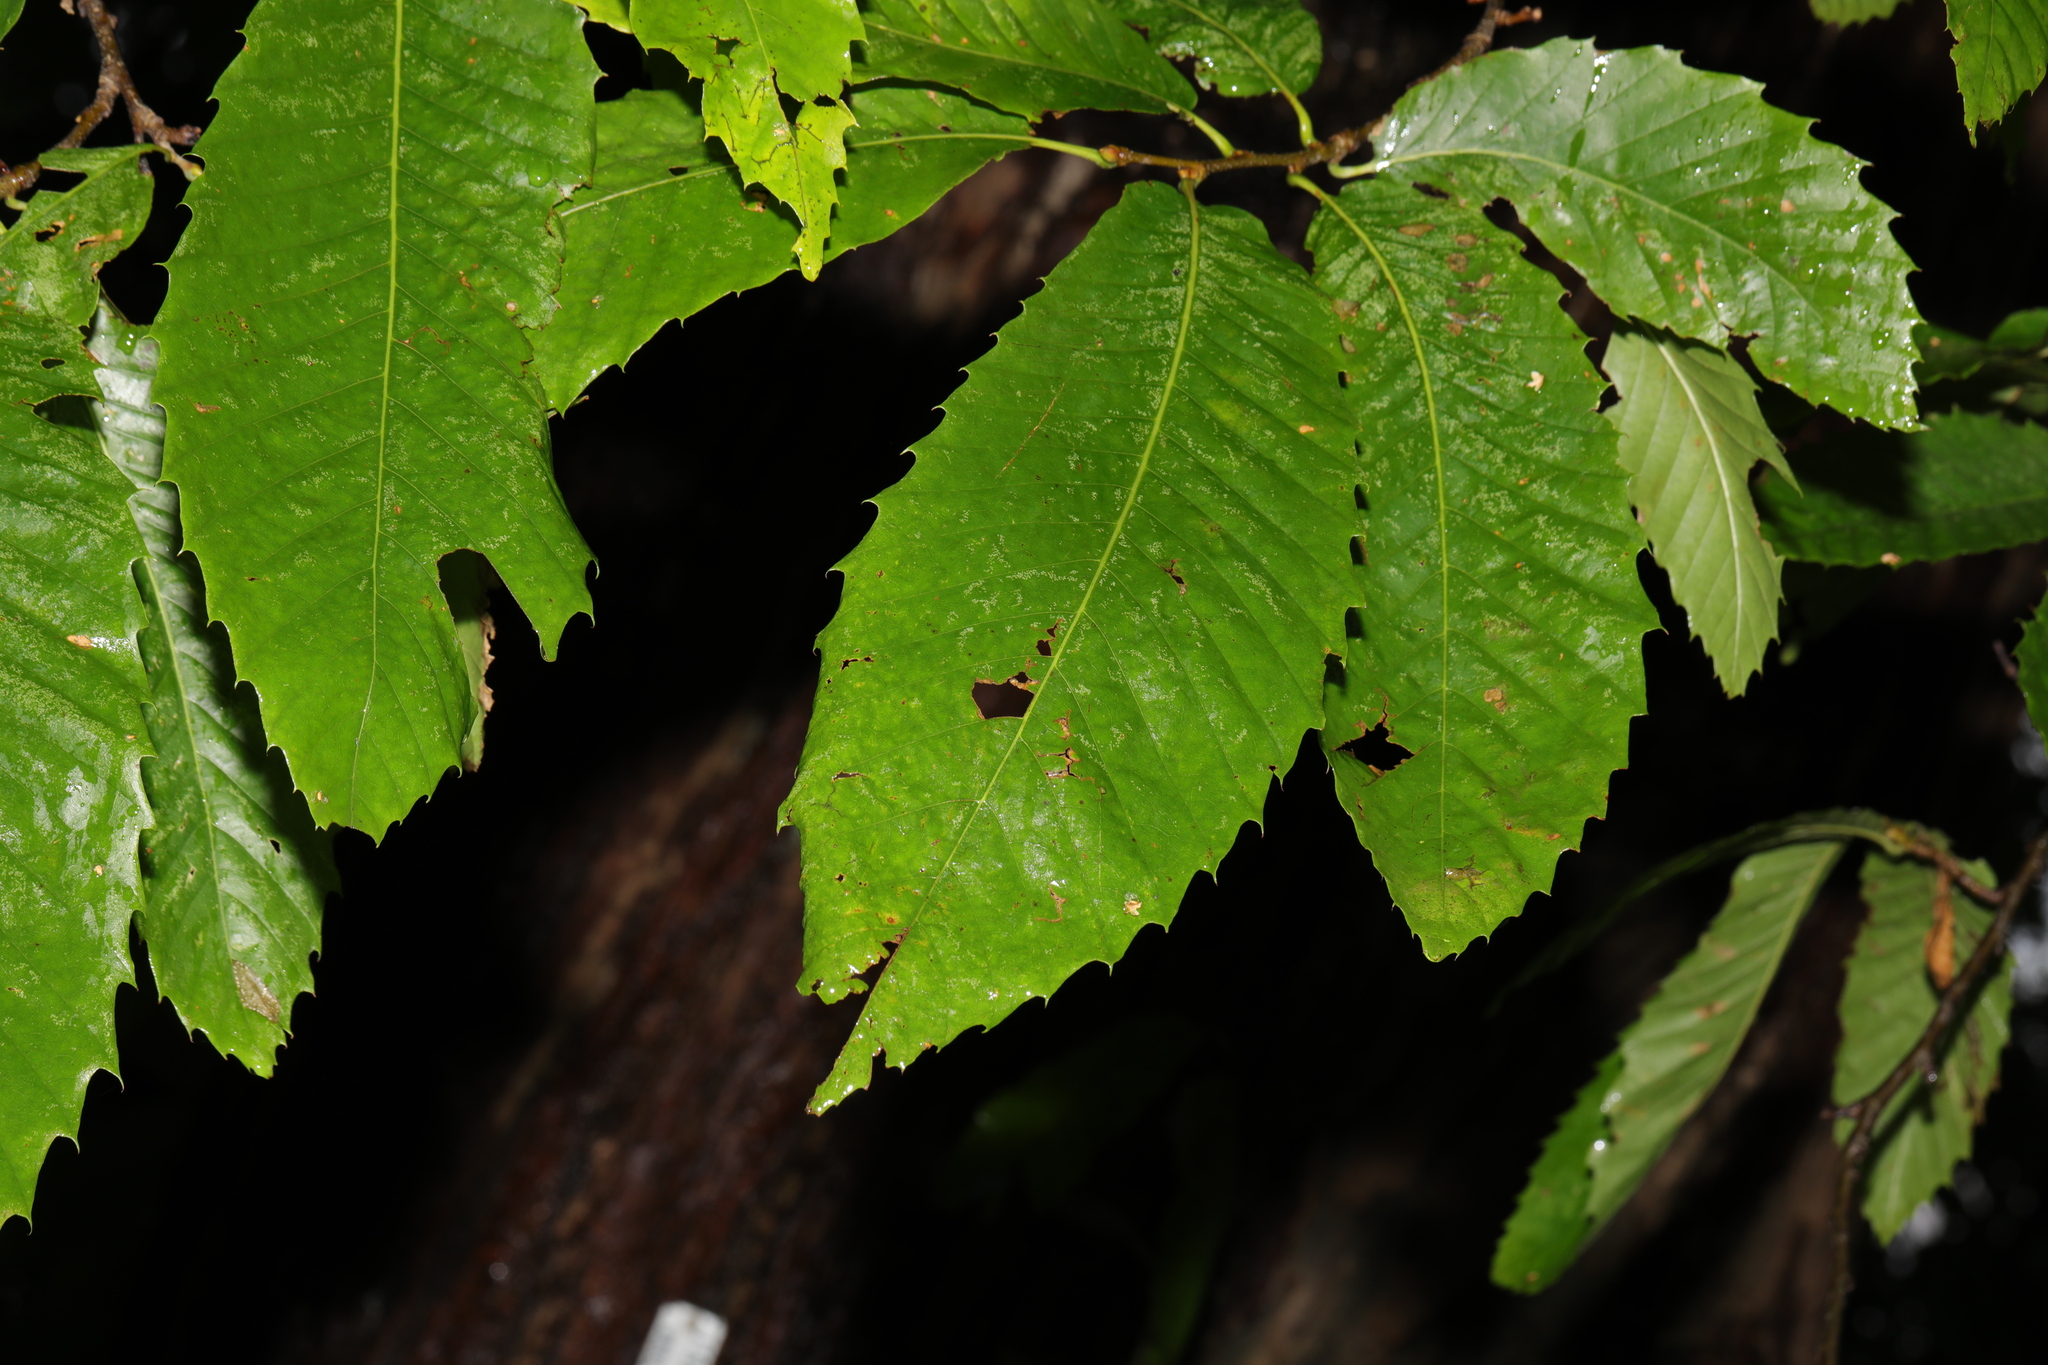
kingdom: Plantae
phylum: Tracheophyta
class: Magnoliopsida
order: Fagales
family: Fagaceae
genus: Castanea
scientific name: Castanea sativa
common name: Sweet chestnut
